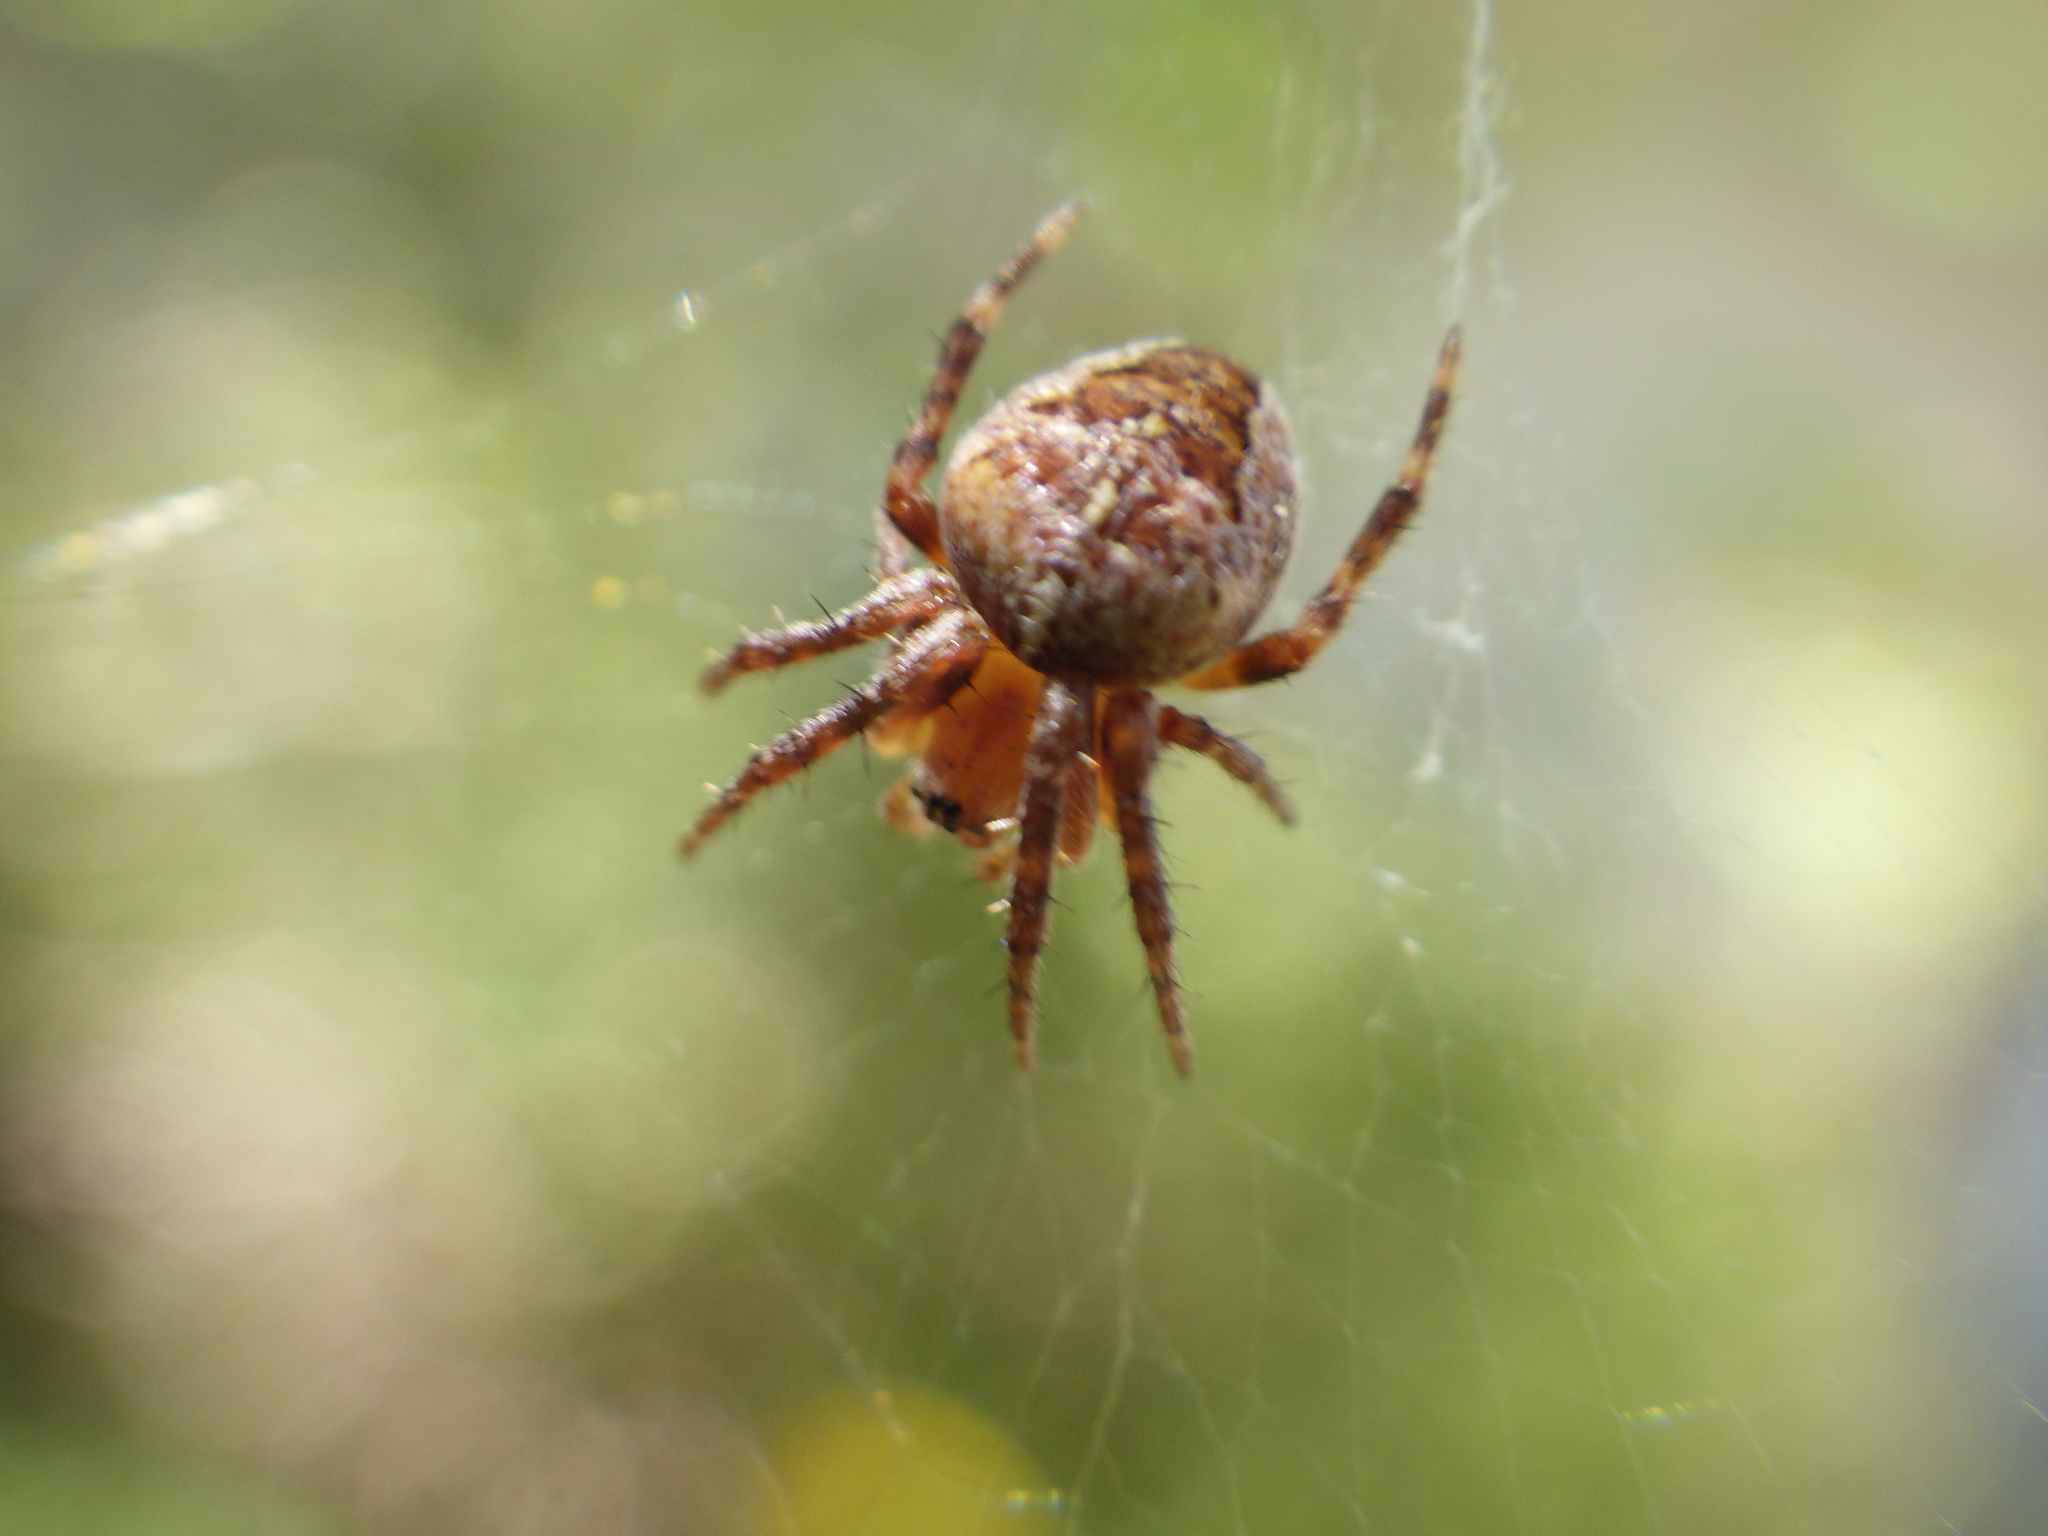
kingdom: Animalia
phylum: Arthropoda
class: Arachnida
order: Araneae
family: Araneidae
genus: Araneus
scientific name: Araneus diadematus
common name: Cross orbweaver
